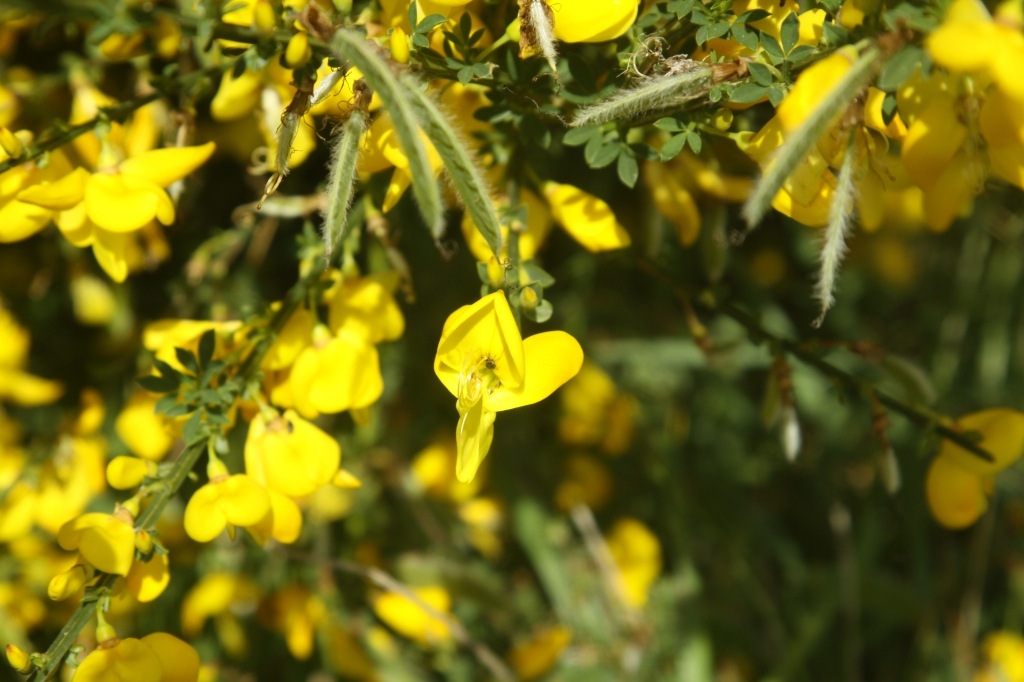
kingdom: Plantae
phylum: Tracheophyta
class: Magnoliopsida
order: Fabales
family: Fabaceae
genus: Cytisus
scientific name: Cytisus scoparius
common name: Scotch broom
